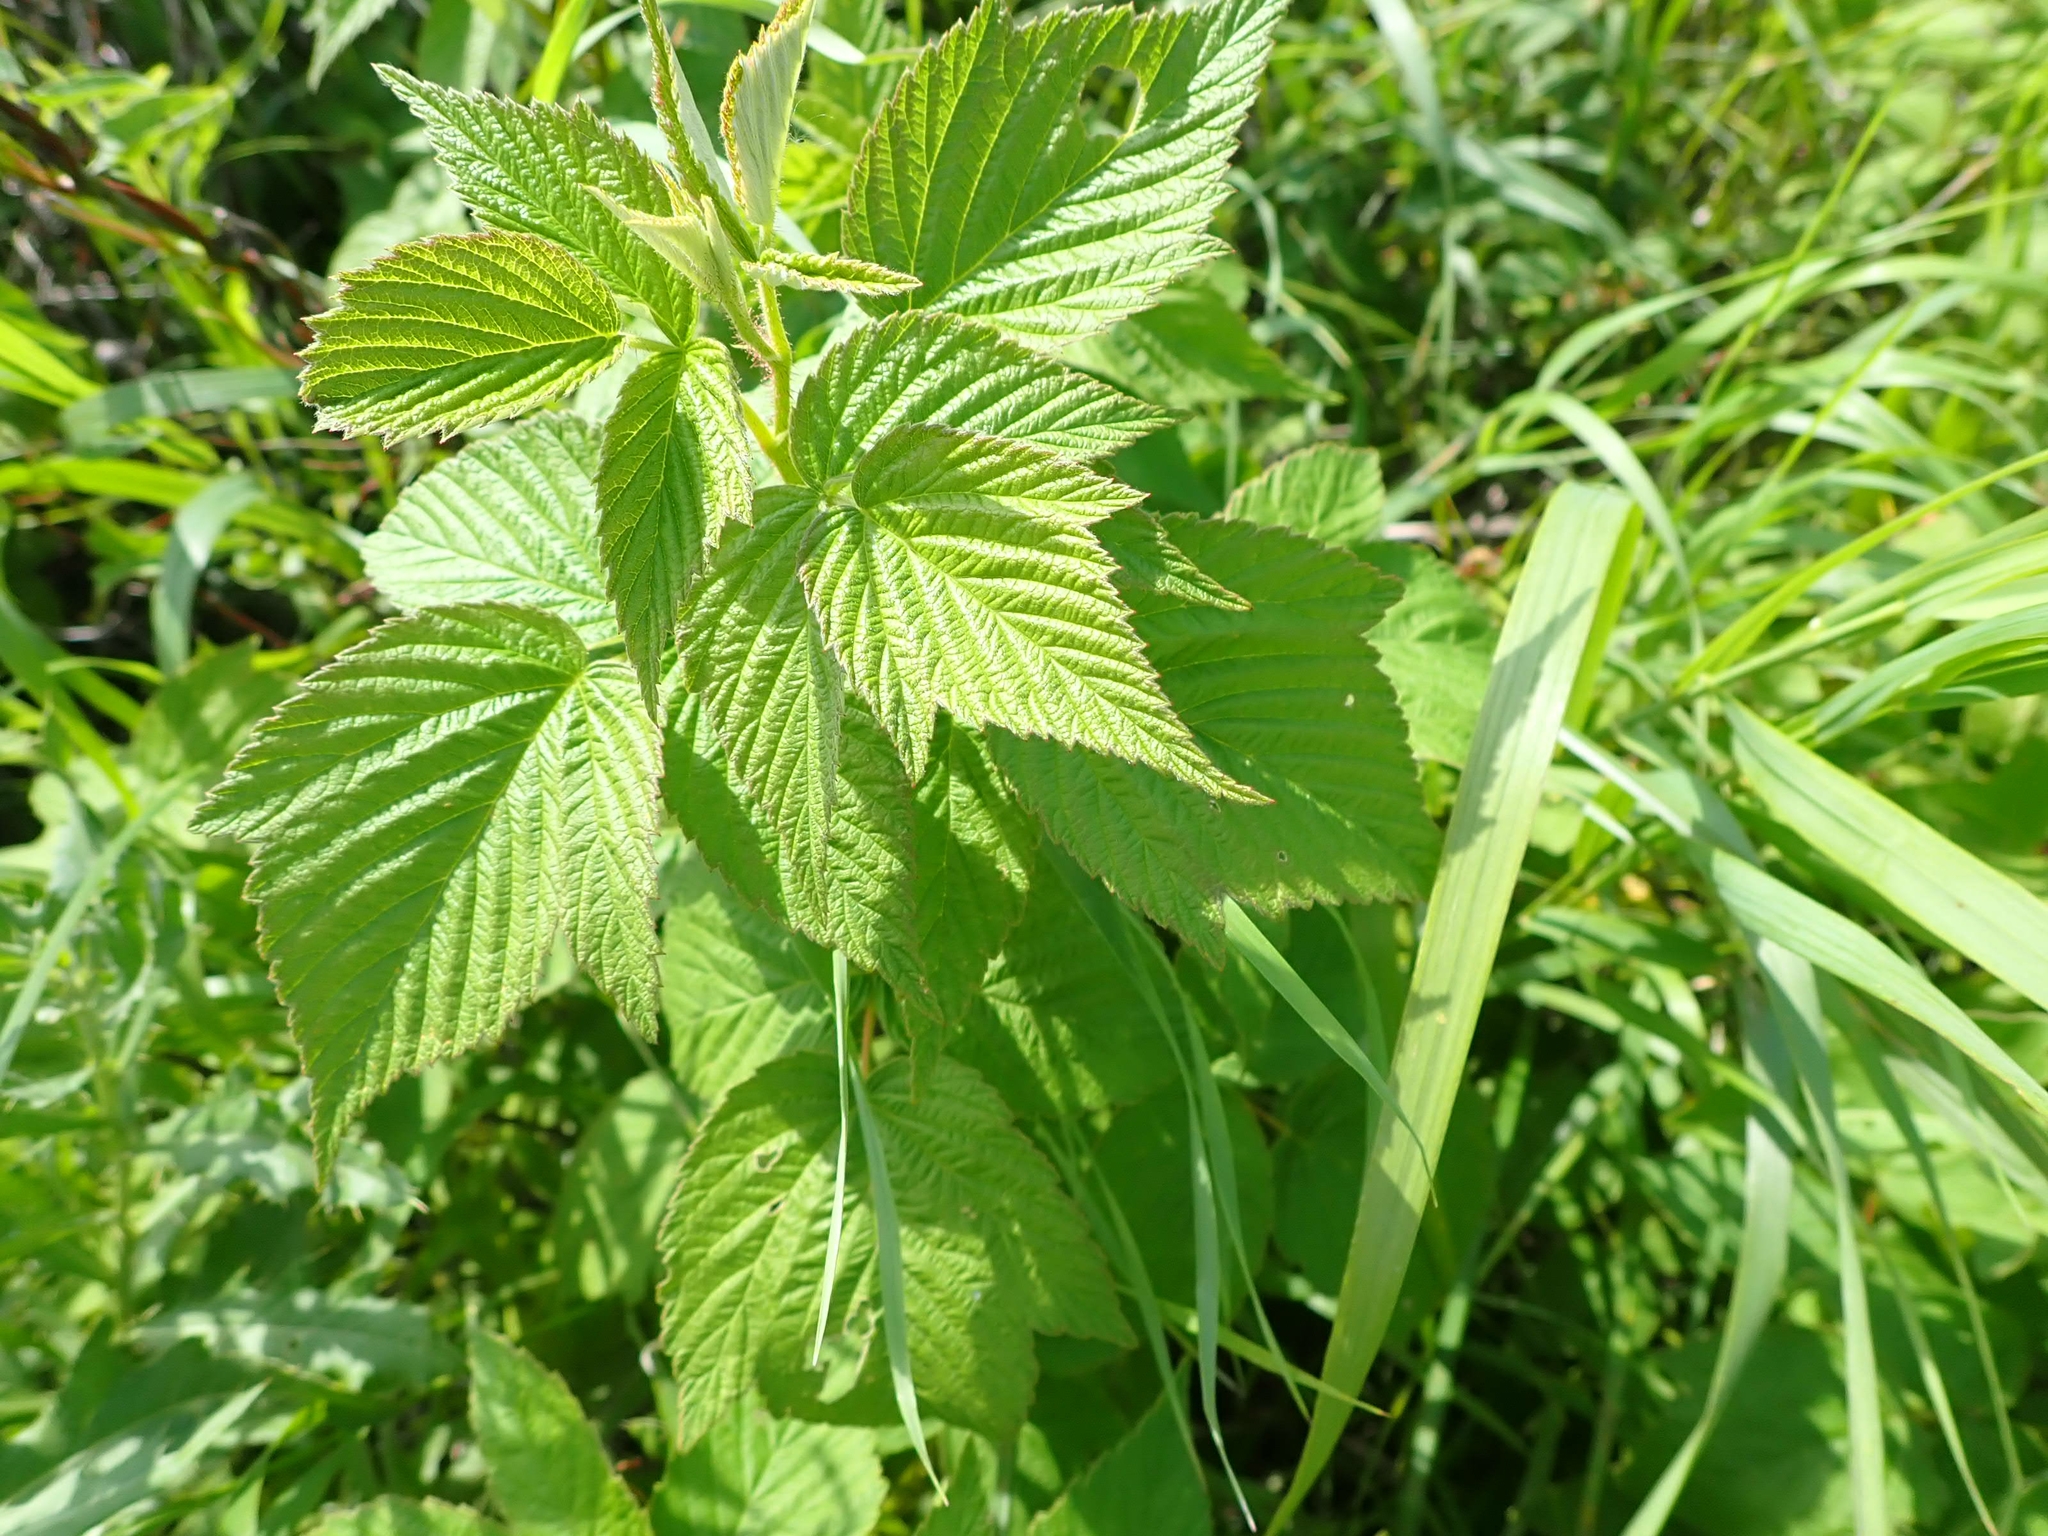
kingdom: Plantae
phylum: Tracheophyta
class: Magnoliopsida
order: Rosales
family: Rosaceae
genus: Rubus
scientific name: Rubus idaeus
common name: Raspberry
